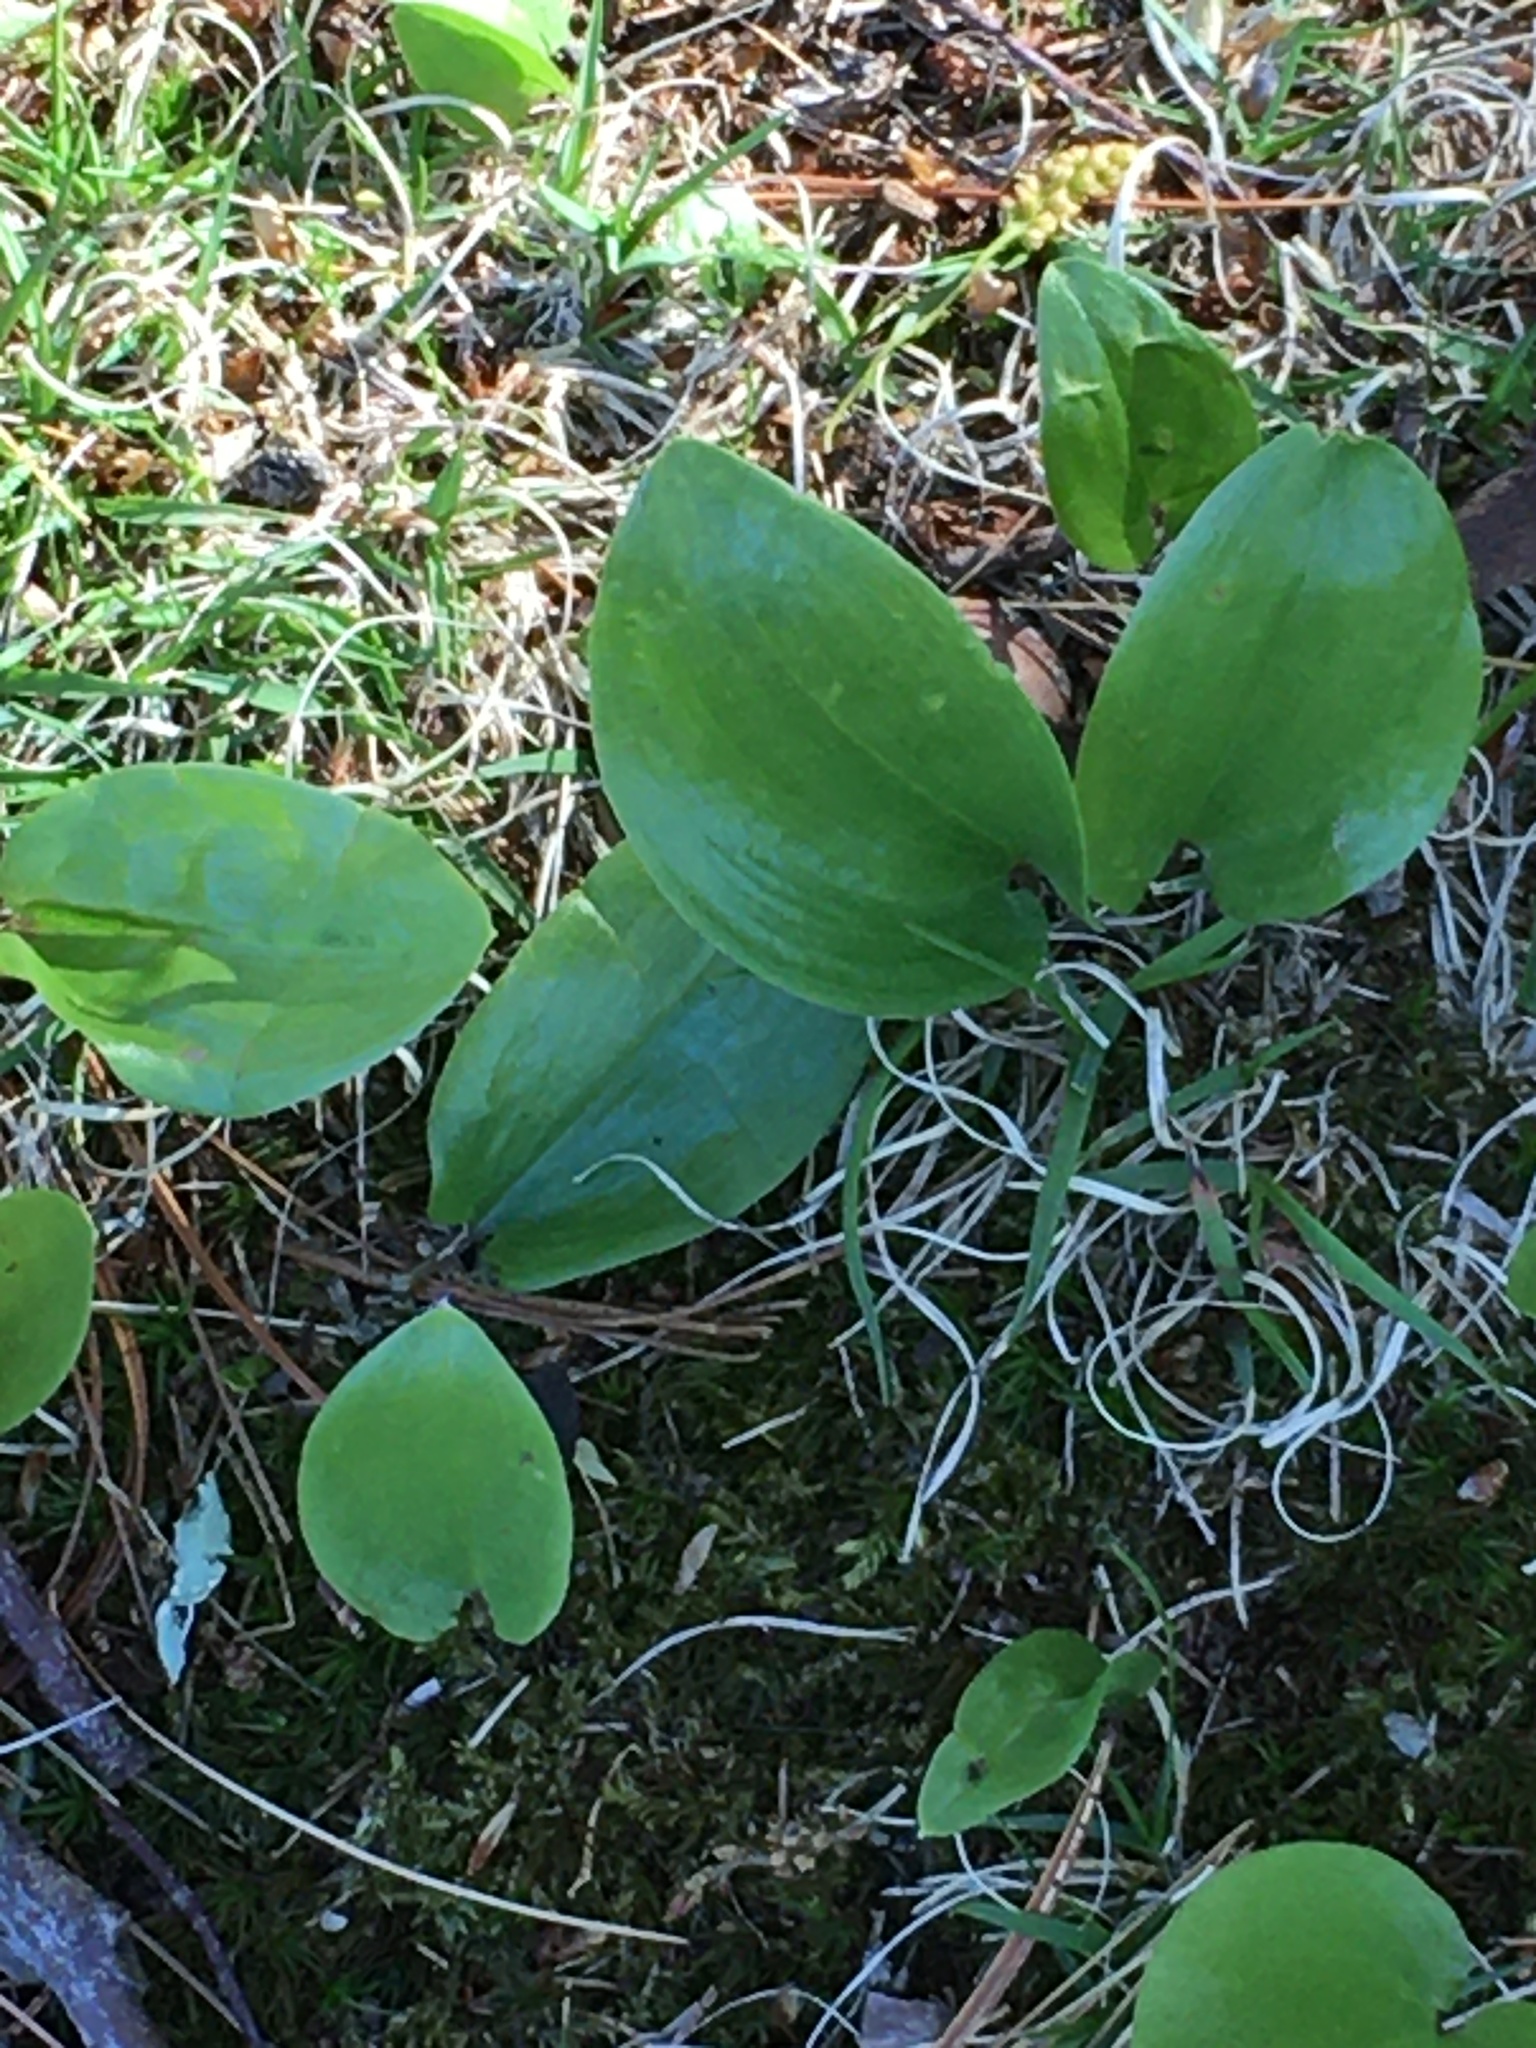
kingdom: Plantae
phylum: Tracheophyta
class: Liliopsida
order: Asparagales
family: Asparagaceae
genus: Maianthemum
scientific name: Maianthemum canadense
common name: False lily-of-the-valley
